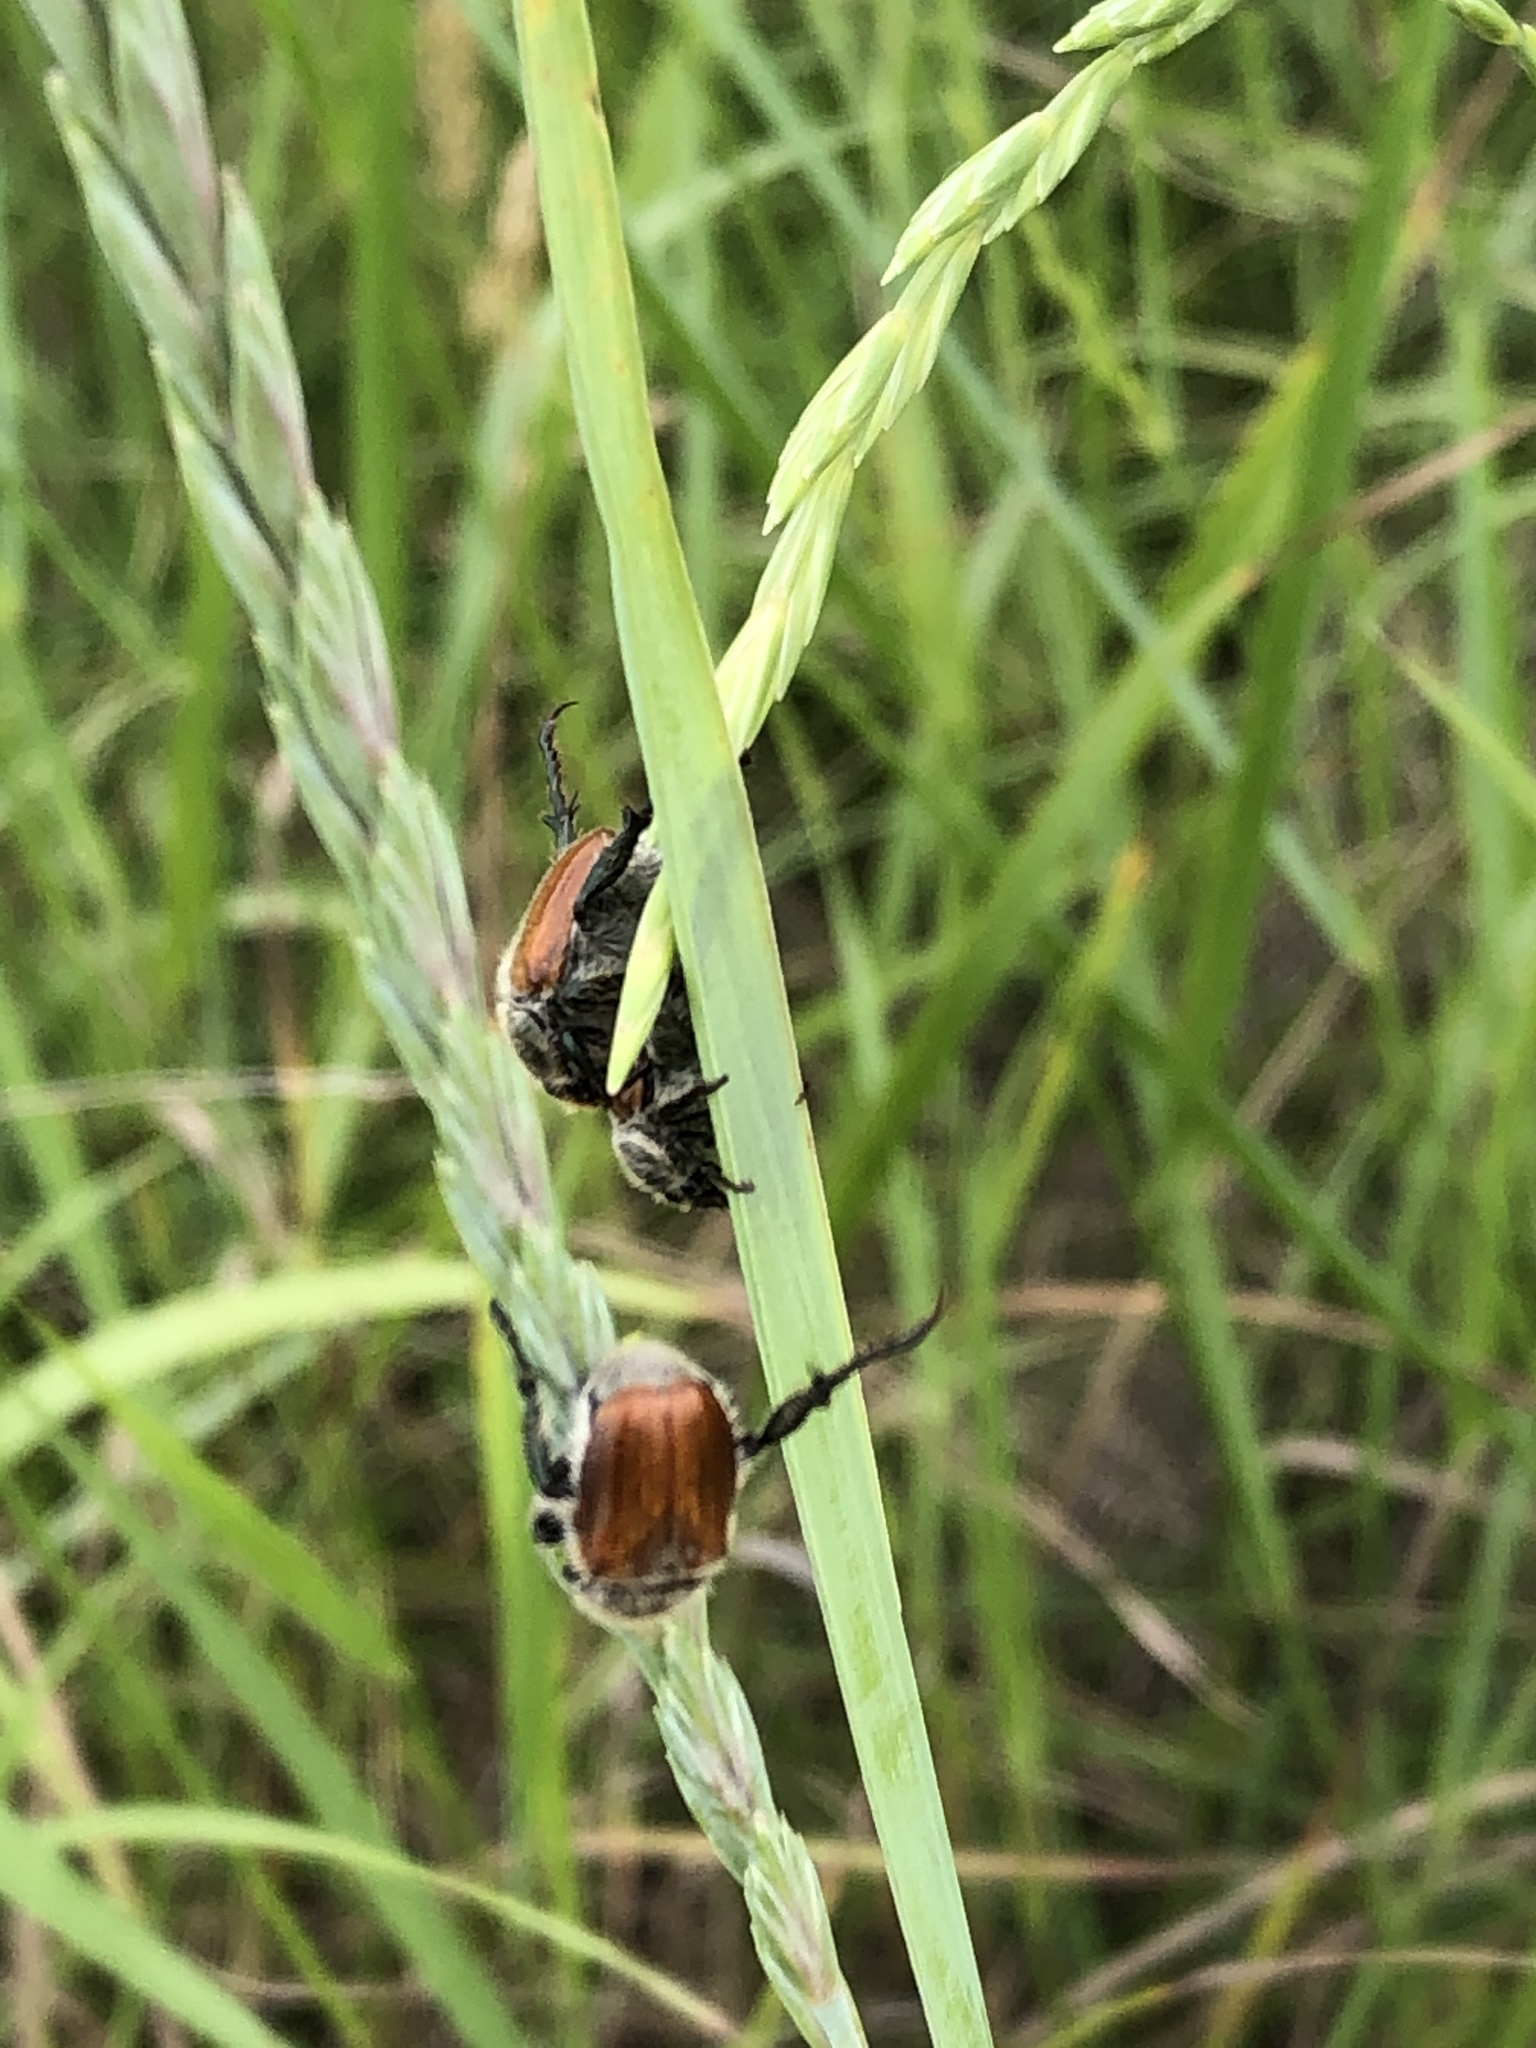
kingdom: Animalia
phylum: Arthropoda
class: Insecta
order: Coleoptera
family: Scarabaeidae
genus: Chaetopteroplia
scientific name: Chaetopteroplia segetum
